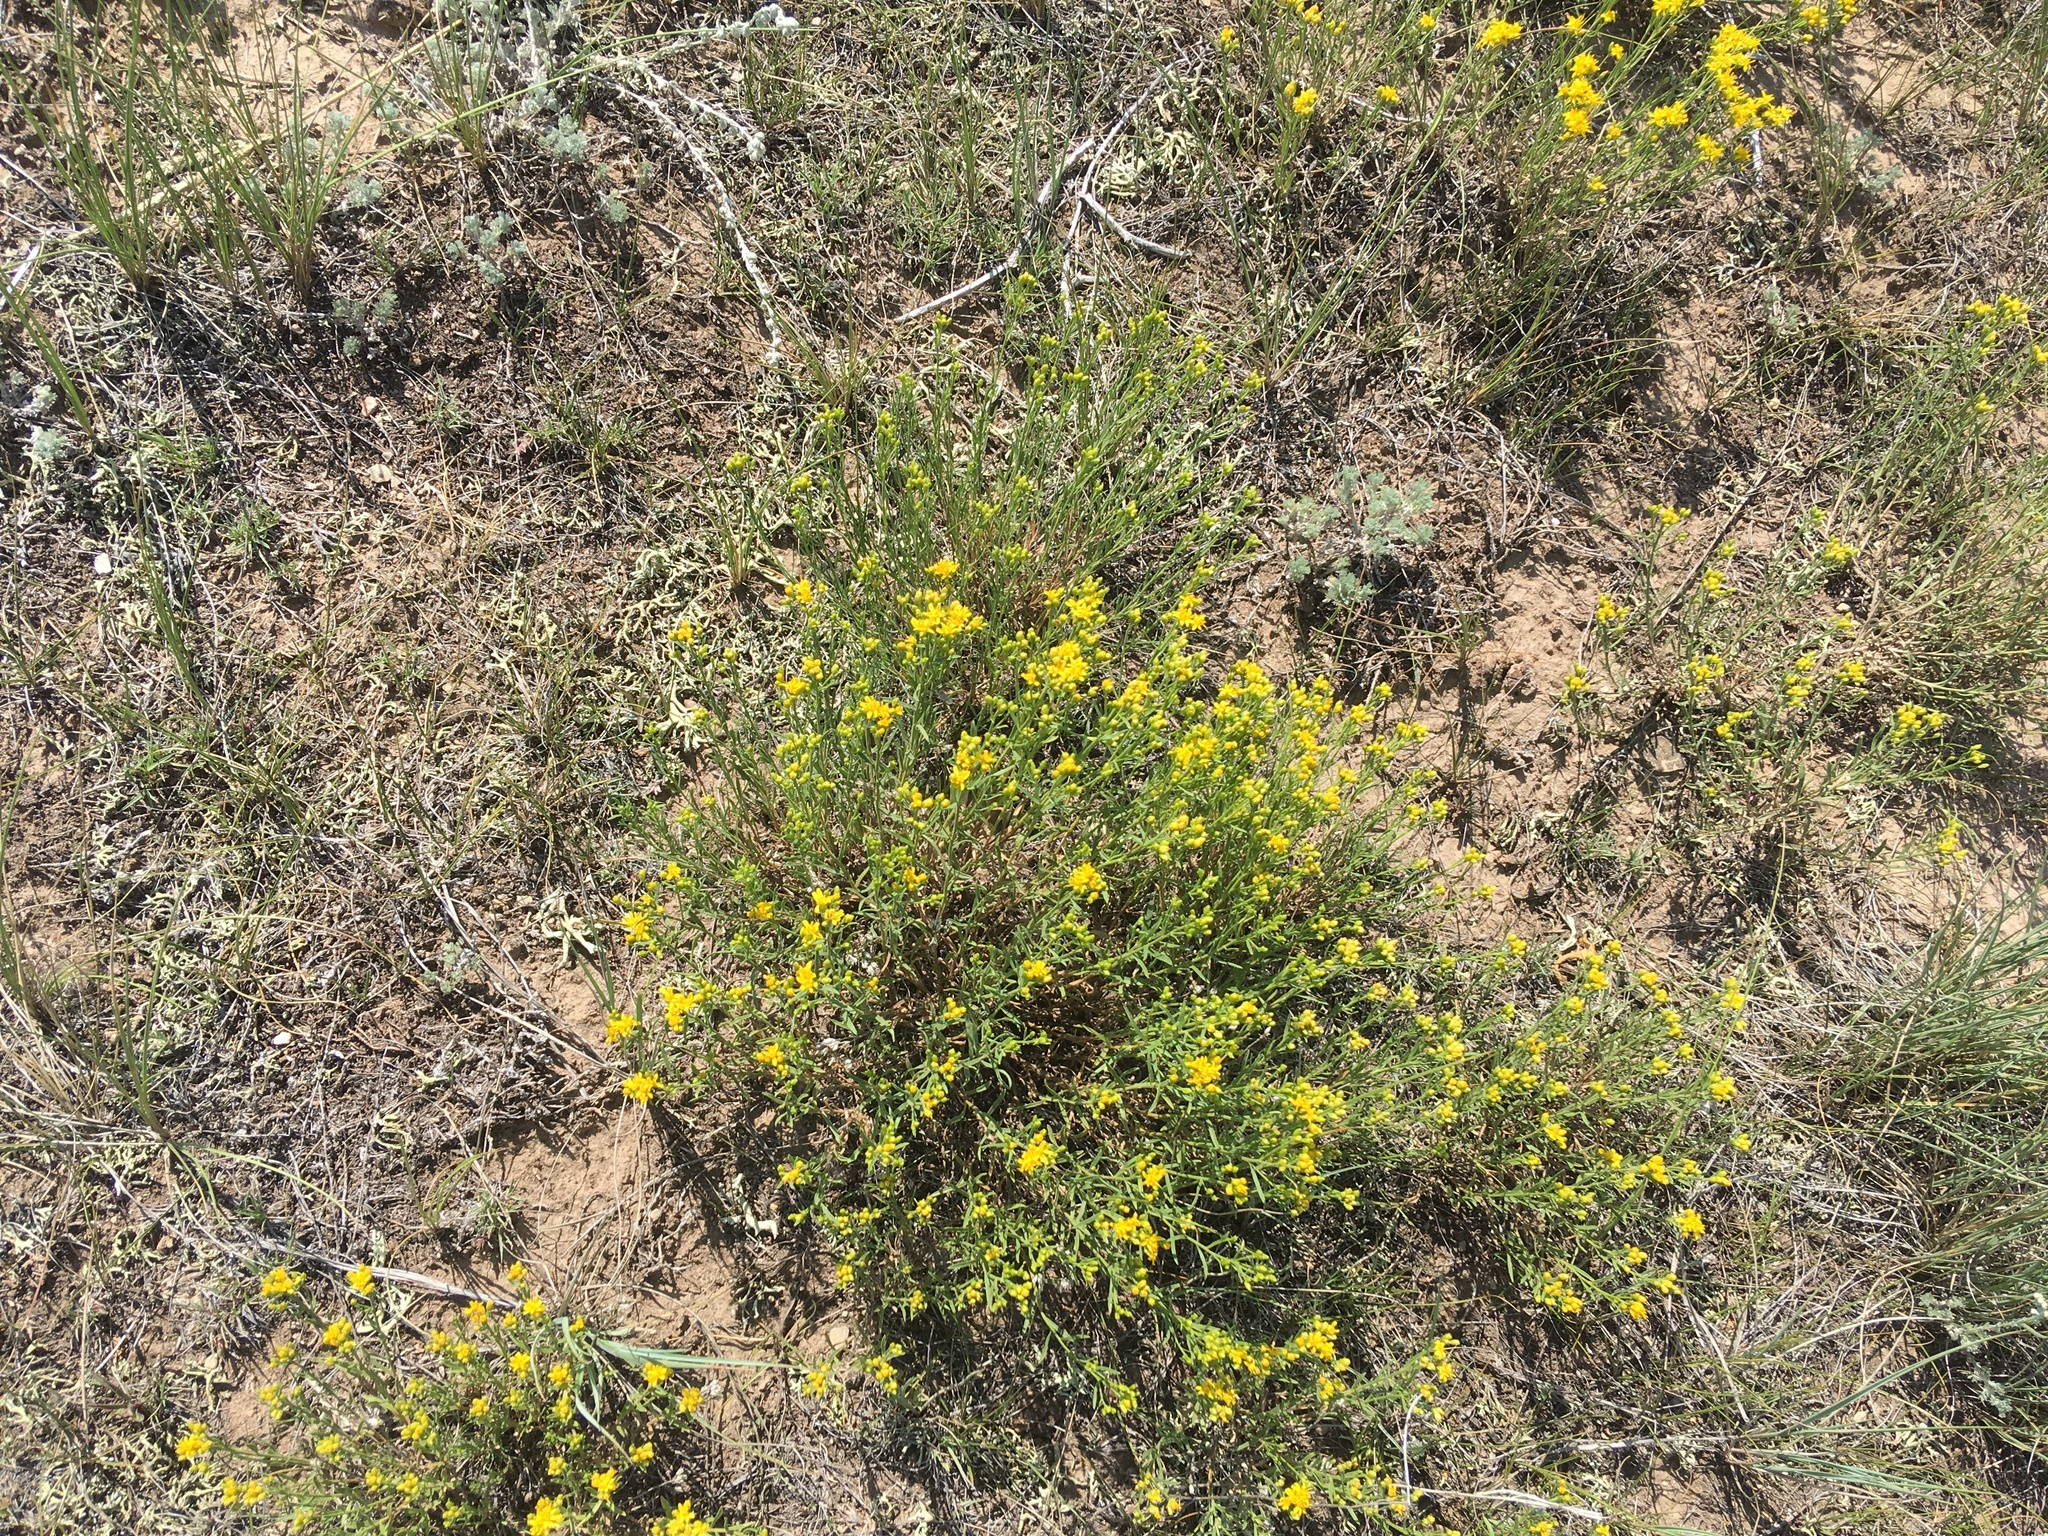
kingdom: Plantae
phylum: Tracheophyta
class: Magnoliopsida
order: Asterales
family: Asteraceae
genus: Gutierrezia
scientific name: Gutierrezia sarothrae
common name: Broom snakeweed
